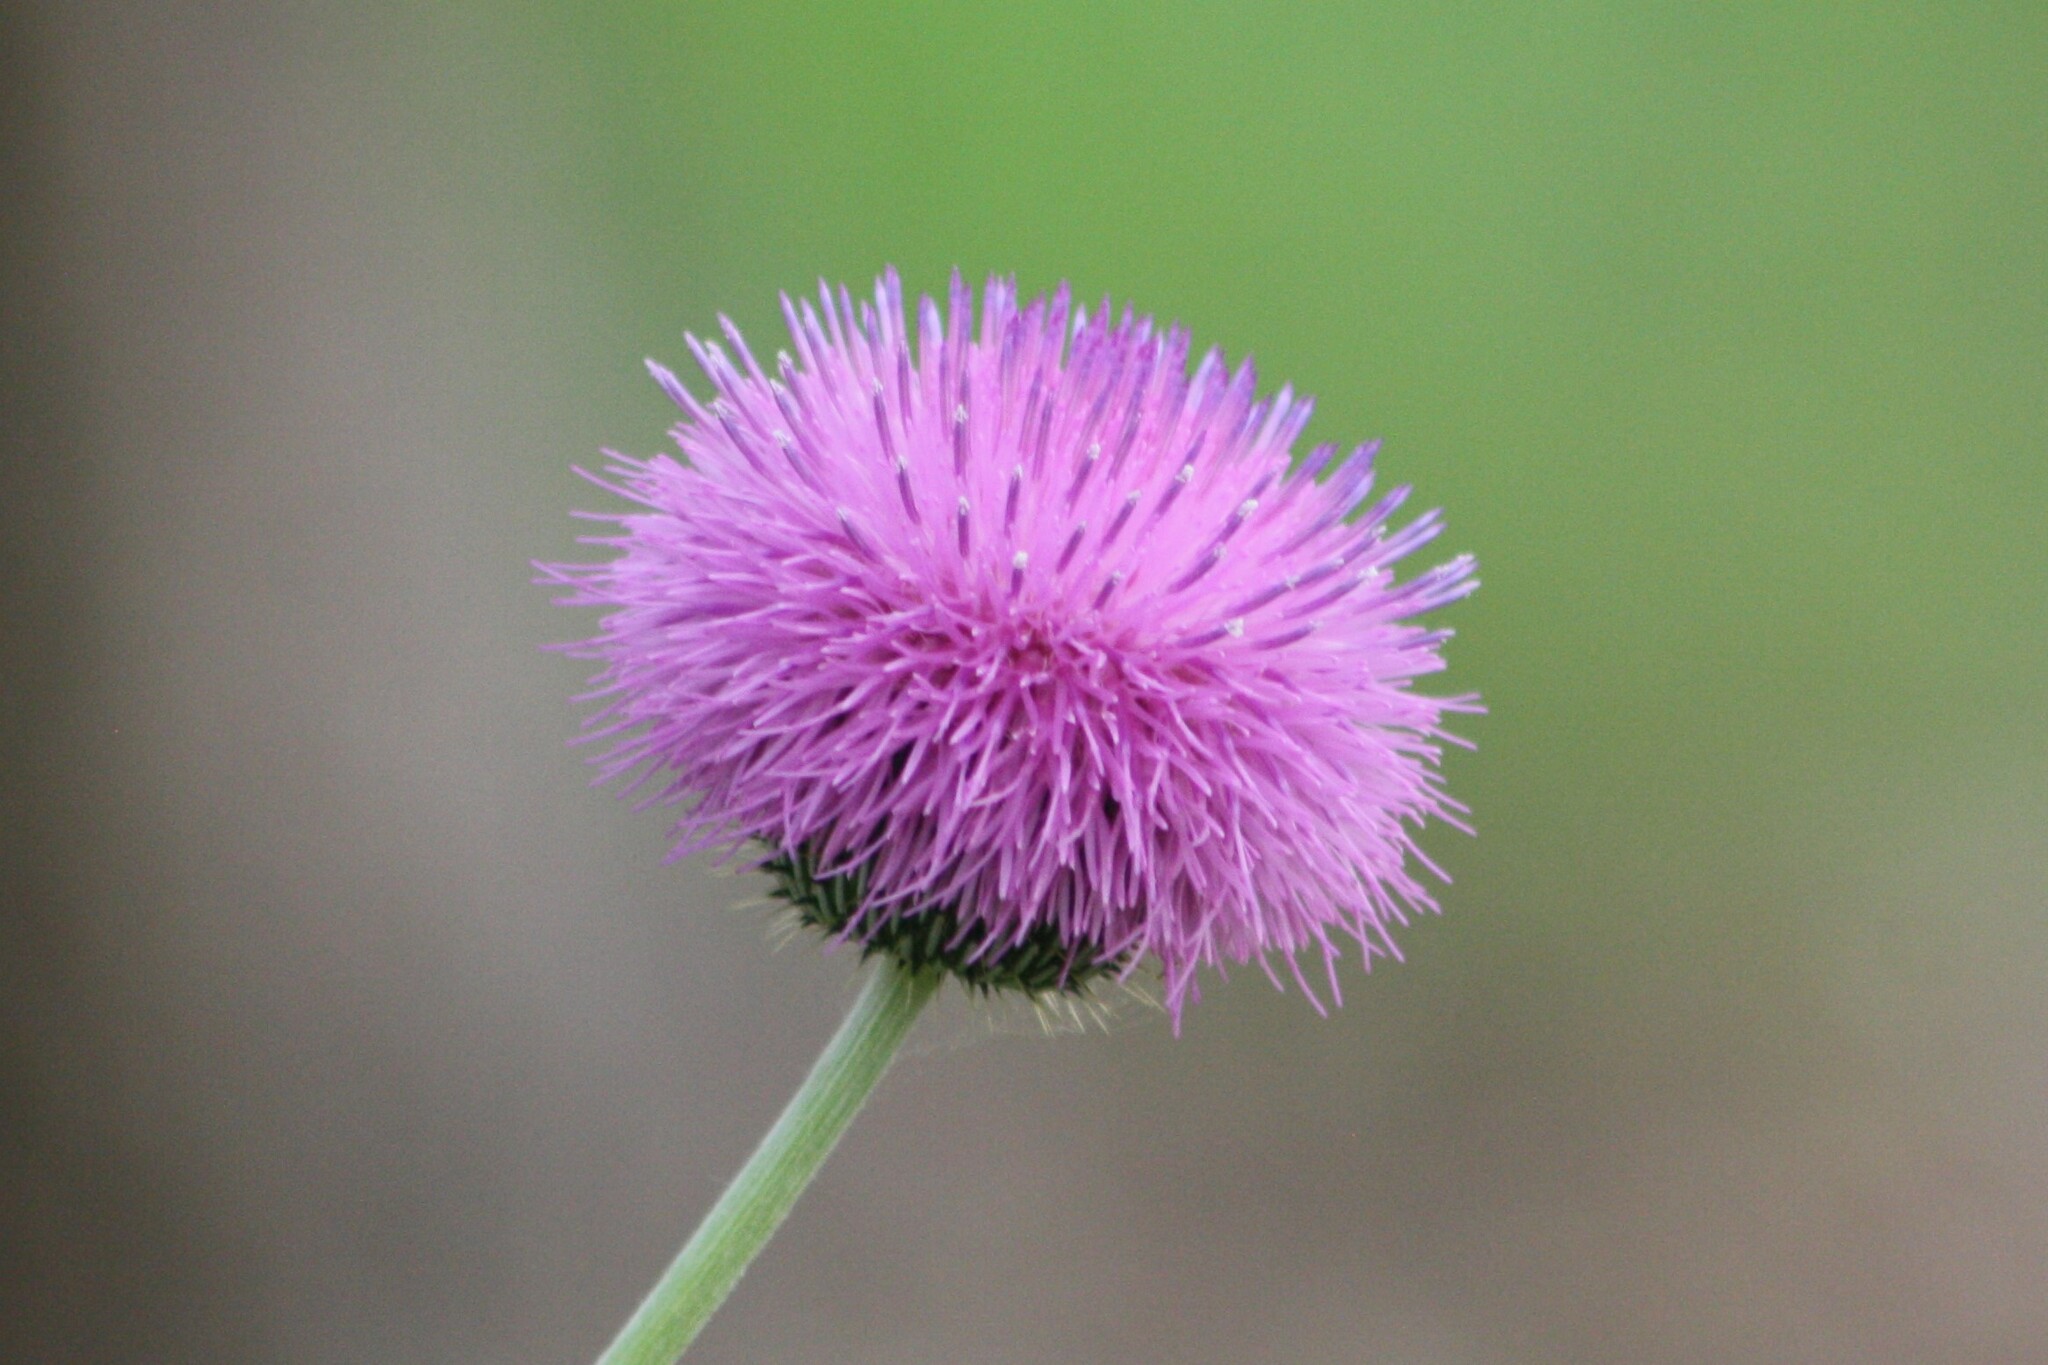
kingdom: Plantae
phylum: Tracheophyta
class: Magnoliopsida
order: Asterales
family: Asteraceae
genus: Cirsium
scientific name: Cirsium texanum
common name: Texas purple thistle
